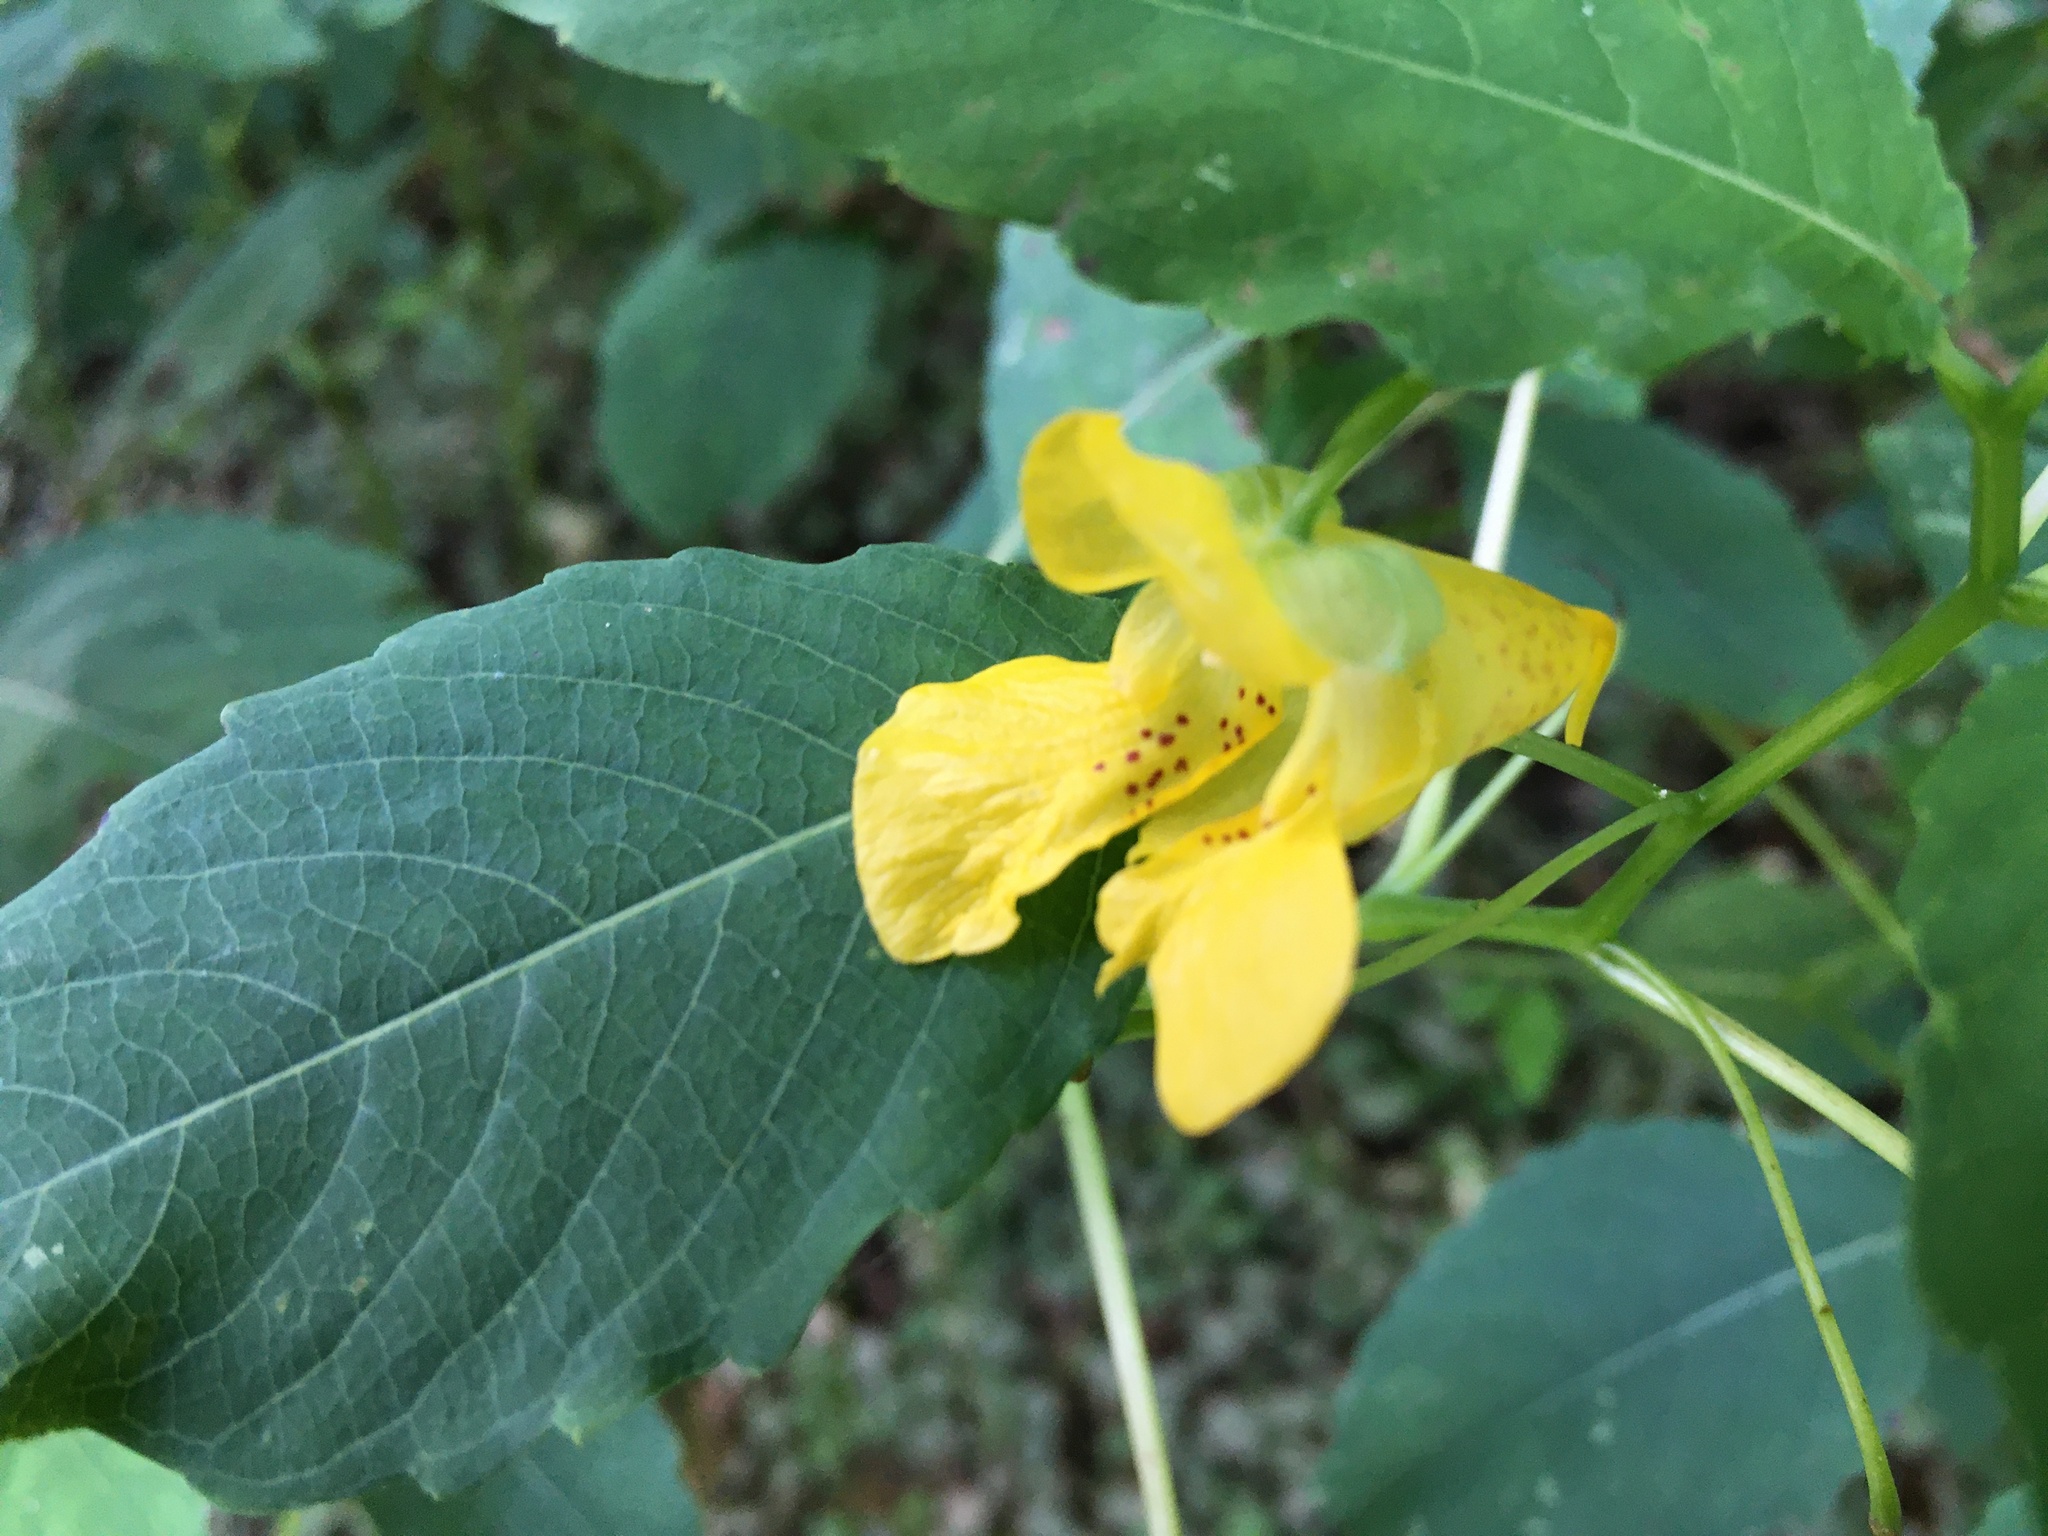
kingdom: Plantae
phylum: Tracheophyta
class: Magnoliopsida
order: Ericales
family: Balsaminaceae
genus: Impatiens
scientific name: Impatiens pallida
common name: Pale snapweed
